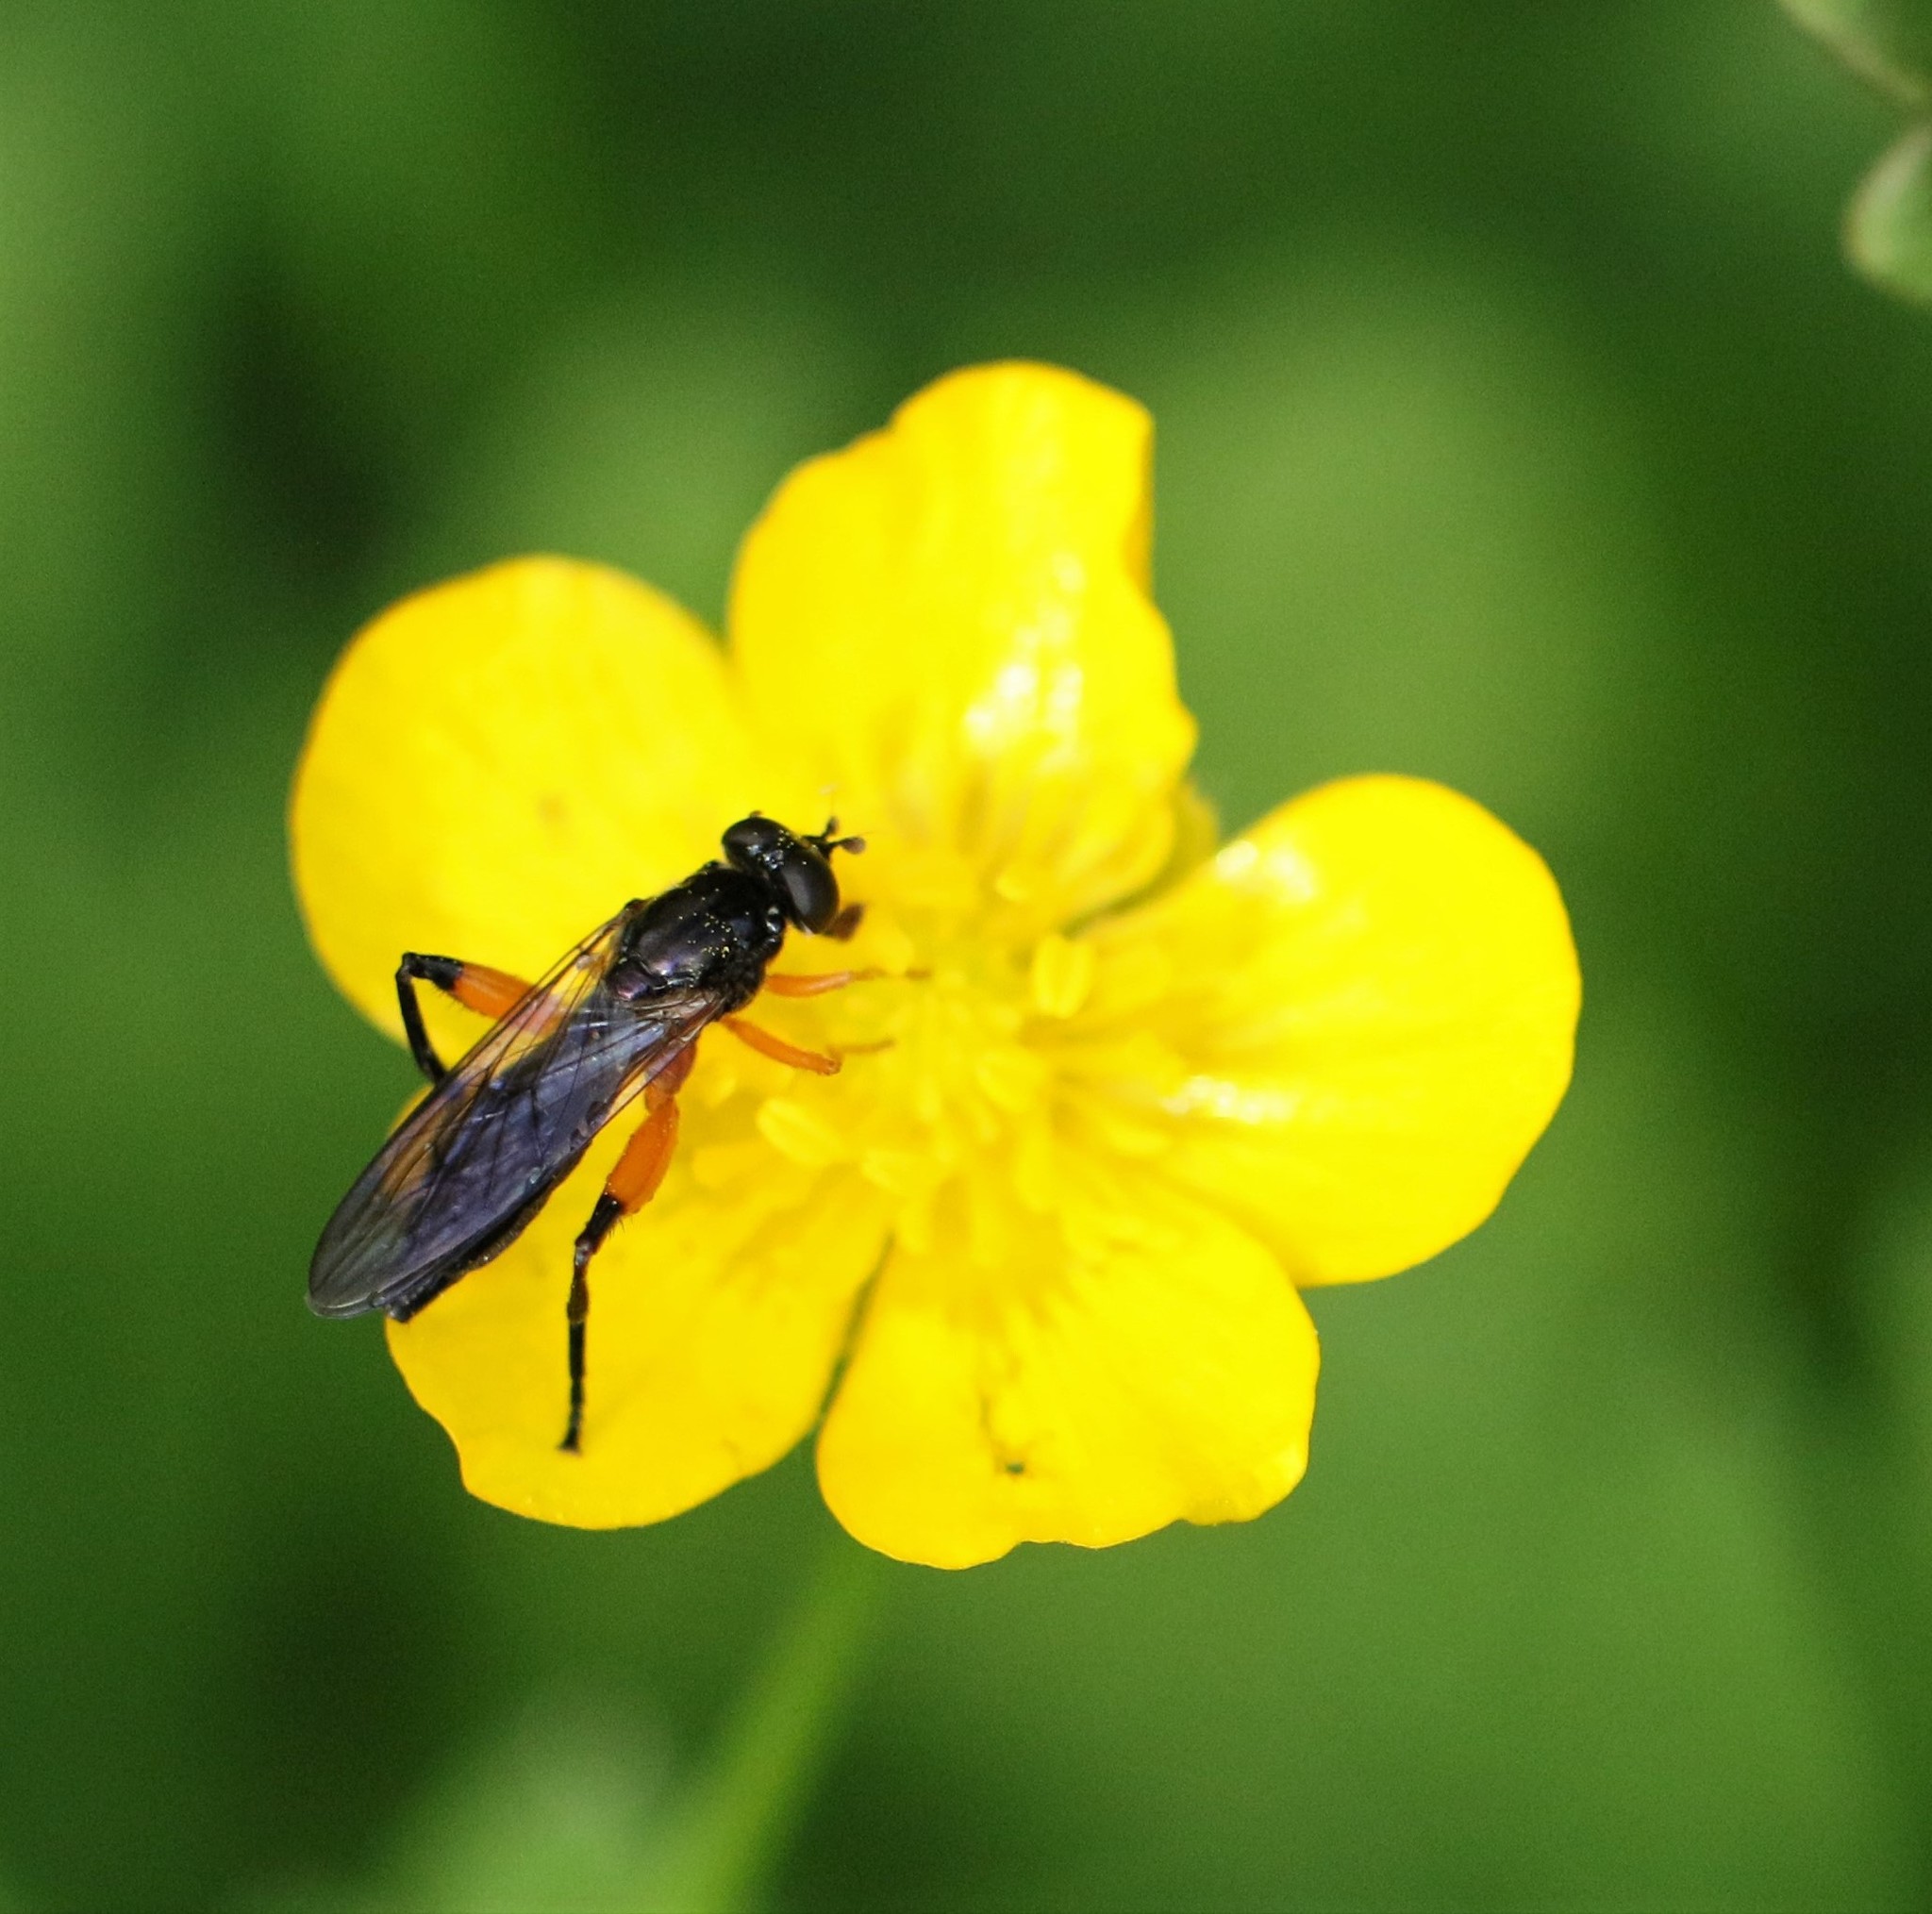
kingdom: Animalia
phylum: Arthropoda
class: Insecta
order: Diptera
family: Syrphidae
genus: Chalcosyrphus
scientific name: Chalcosyrphus vecors
